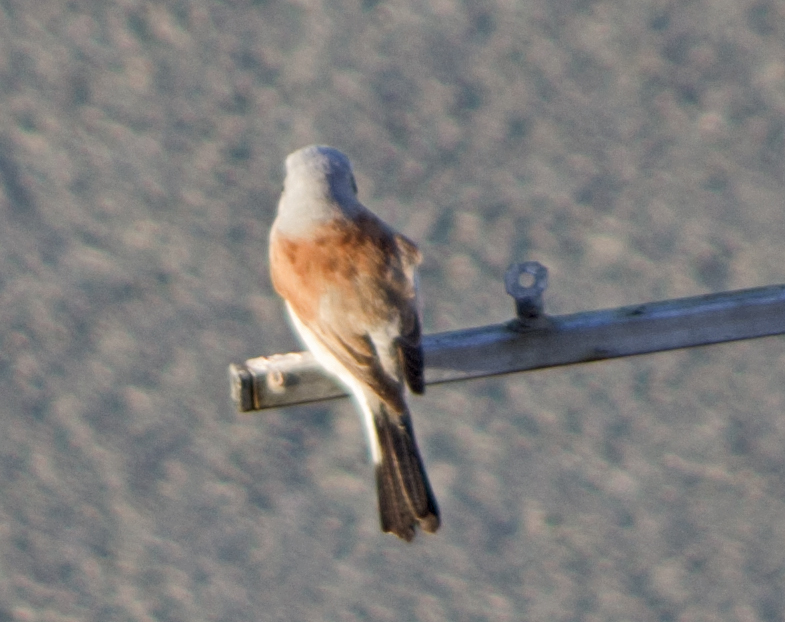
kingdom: Animalia
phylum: Chordata
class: Aves
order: Passeriformes
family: Laniidae
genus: Lanius
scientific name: Lanius collurio
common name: Red-backed shrike
